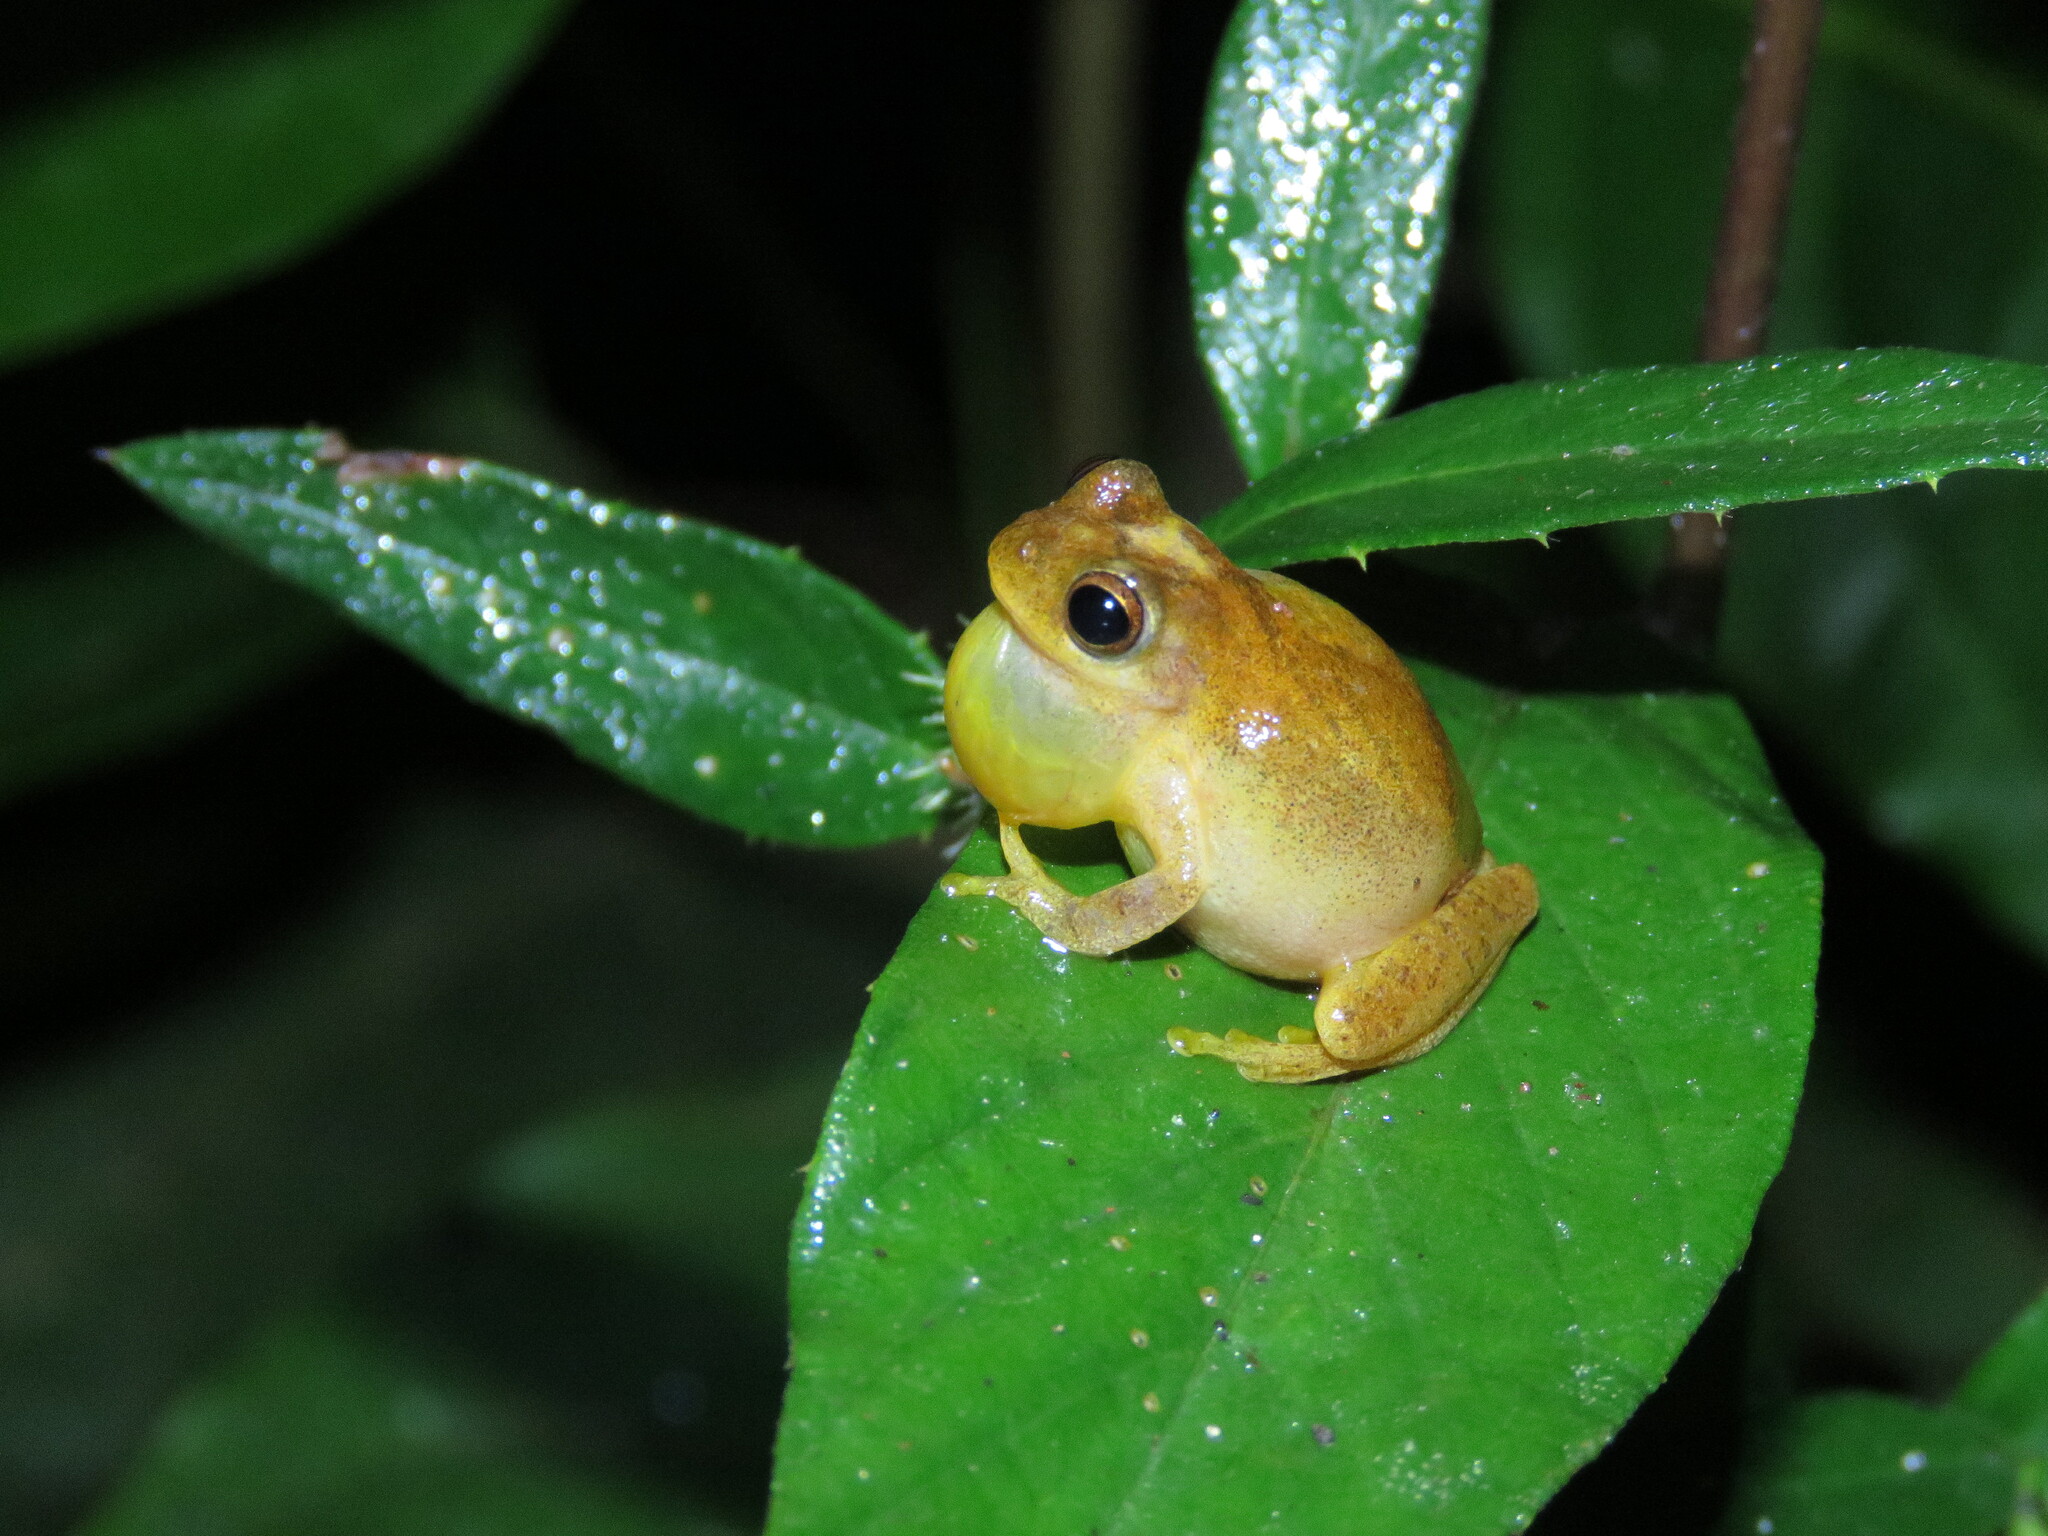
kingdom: Animalia
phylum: Chordata
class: Amphibia
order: Anura
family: Hylidae
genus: Dendropsophus
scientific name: Dendropsophus leali
